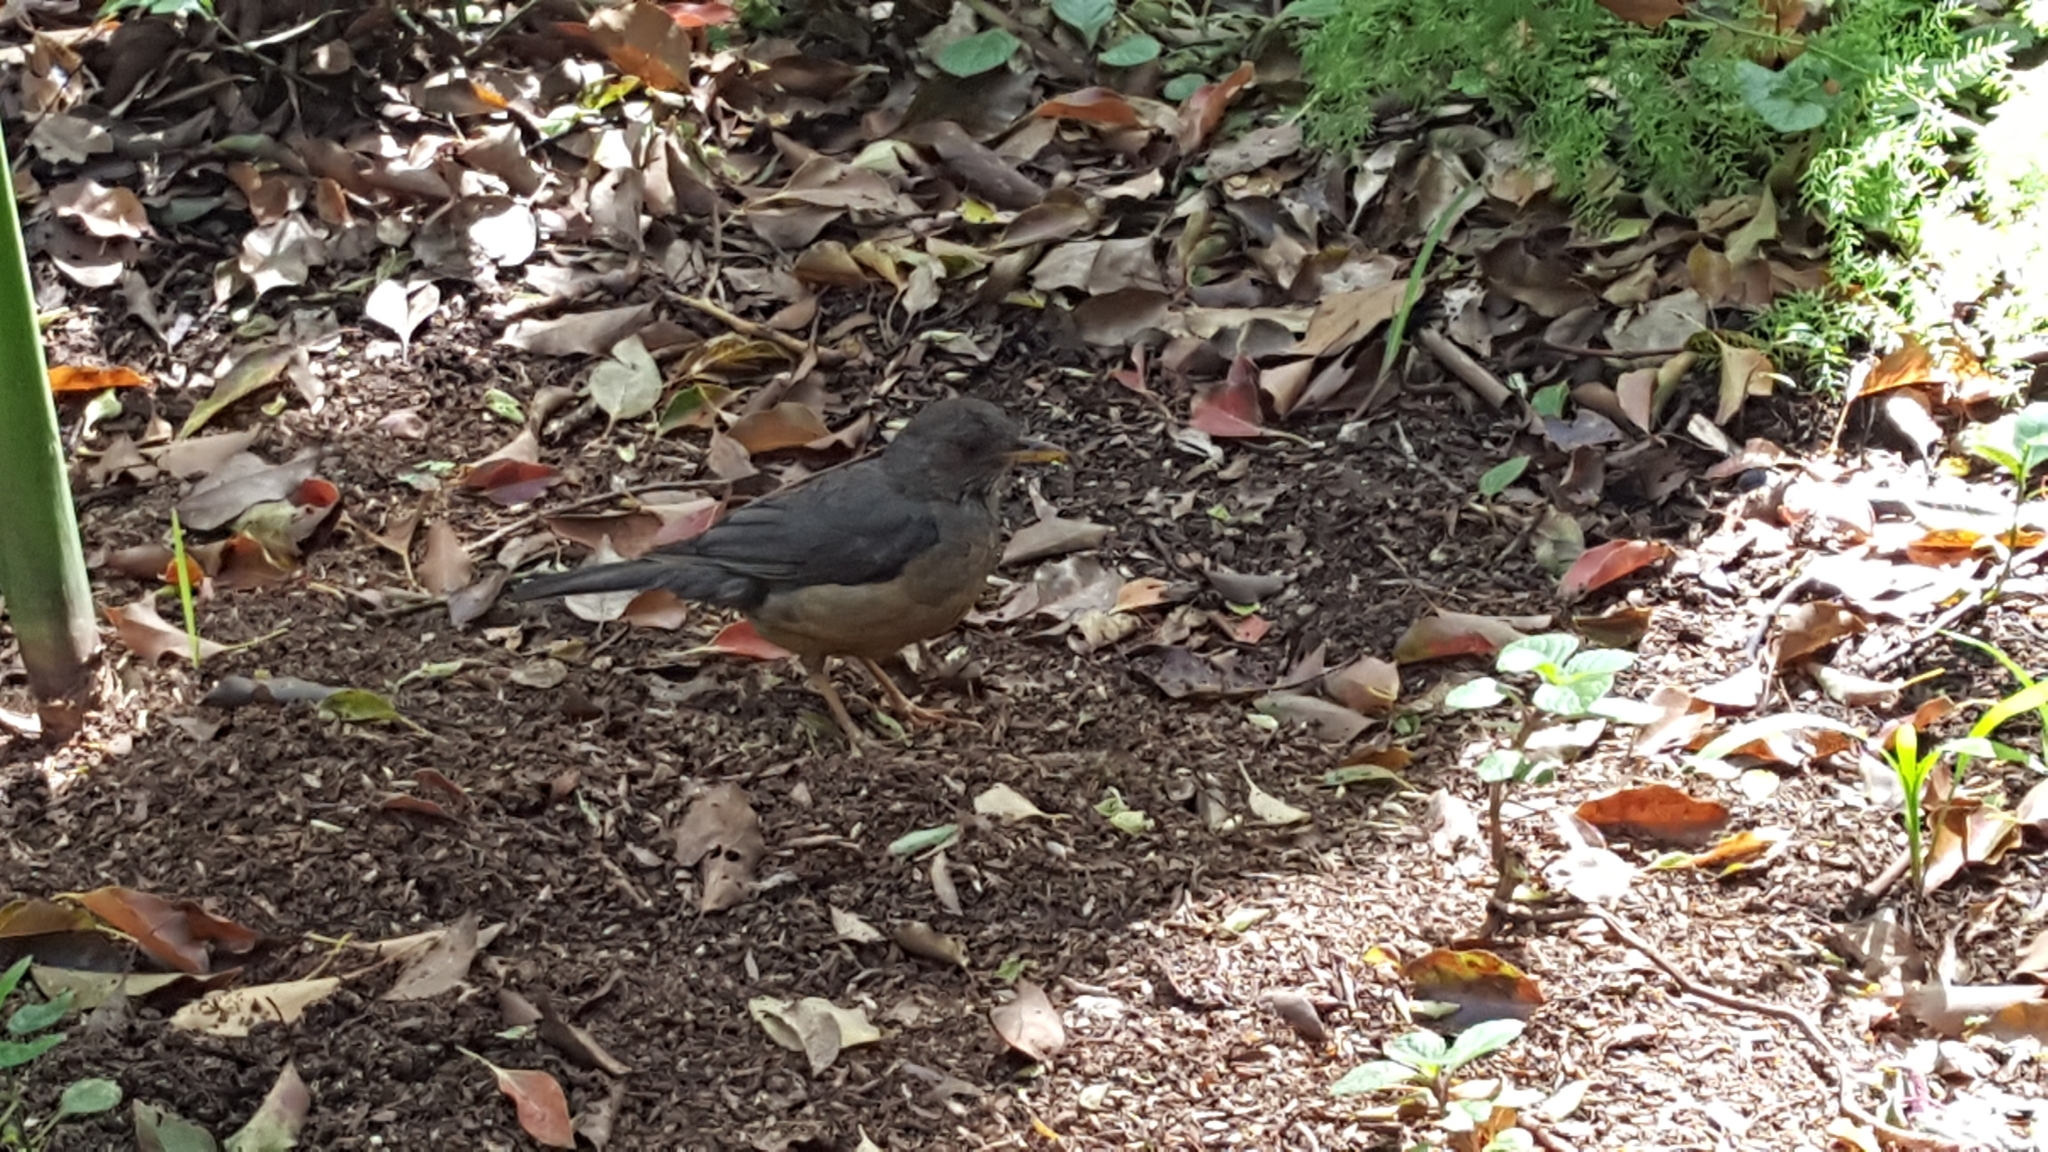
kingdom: Animalia
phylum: Chordata
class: Aves
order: Passeriformes
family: Turdidae
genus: Turdus
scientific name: Turdus olivaceus
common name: Olive thrush
